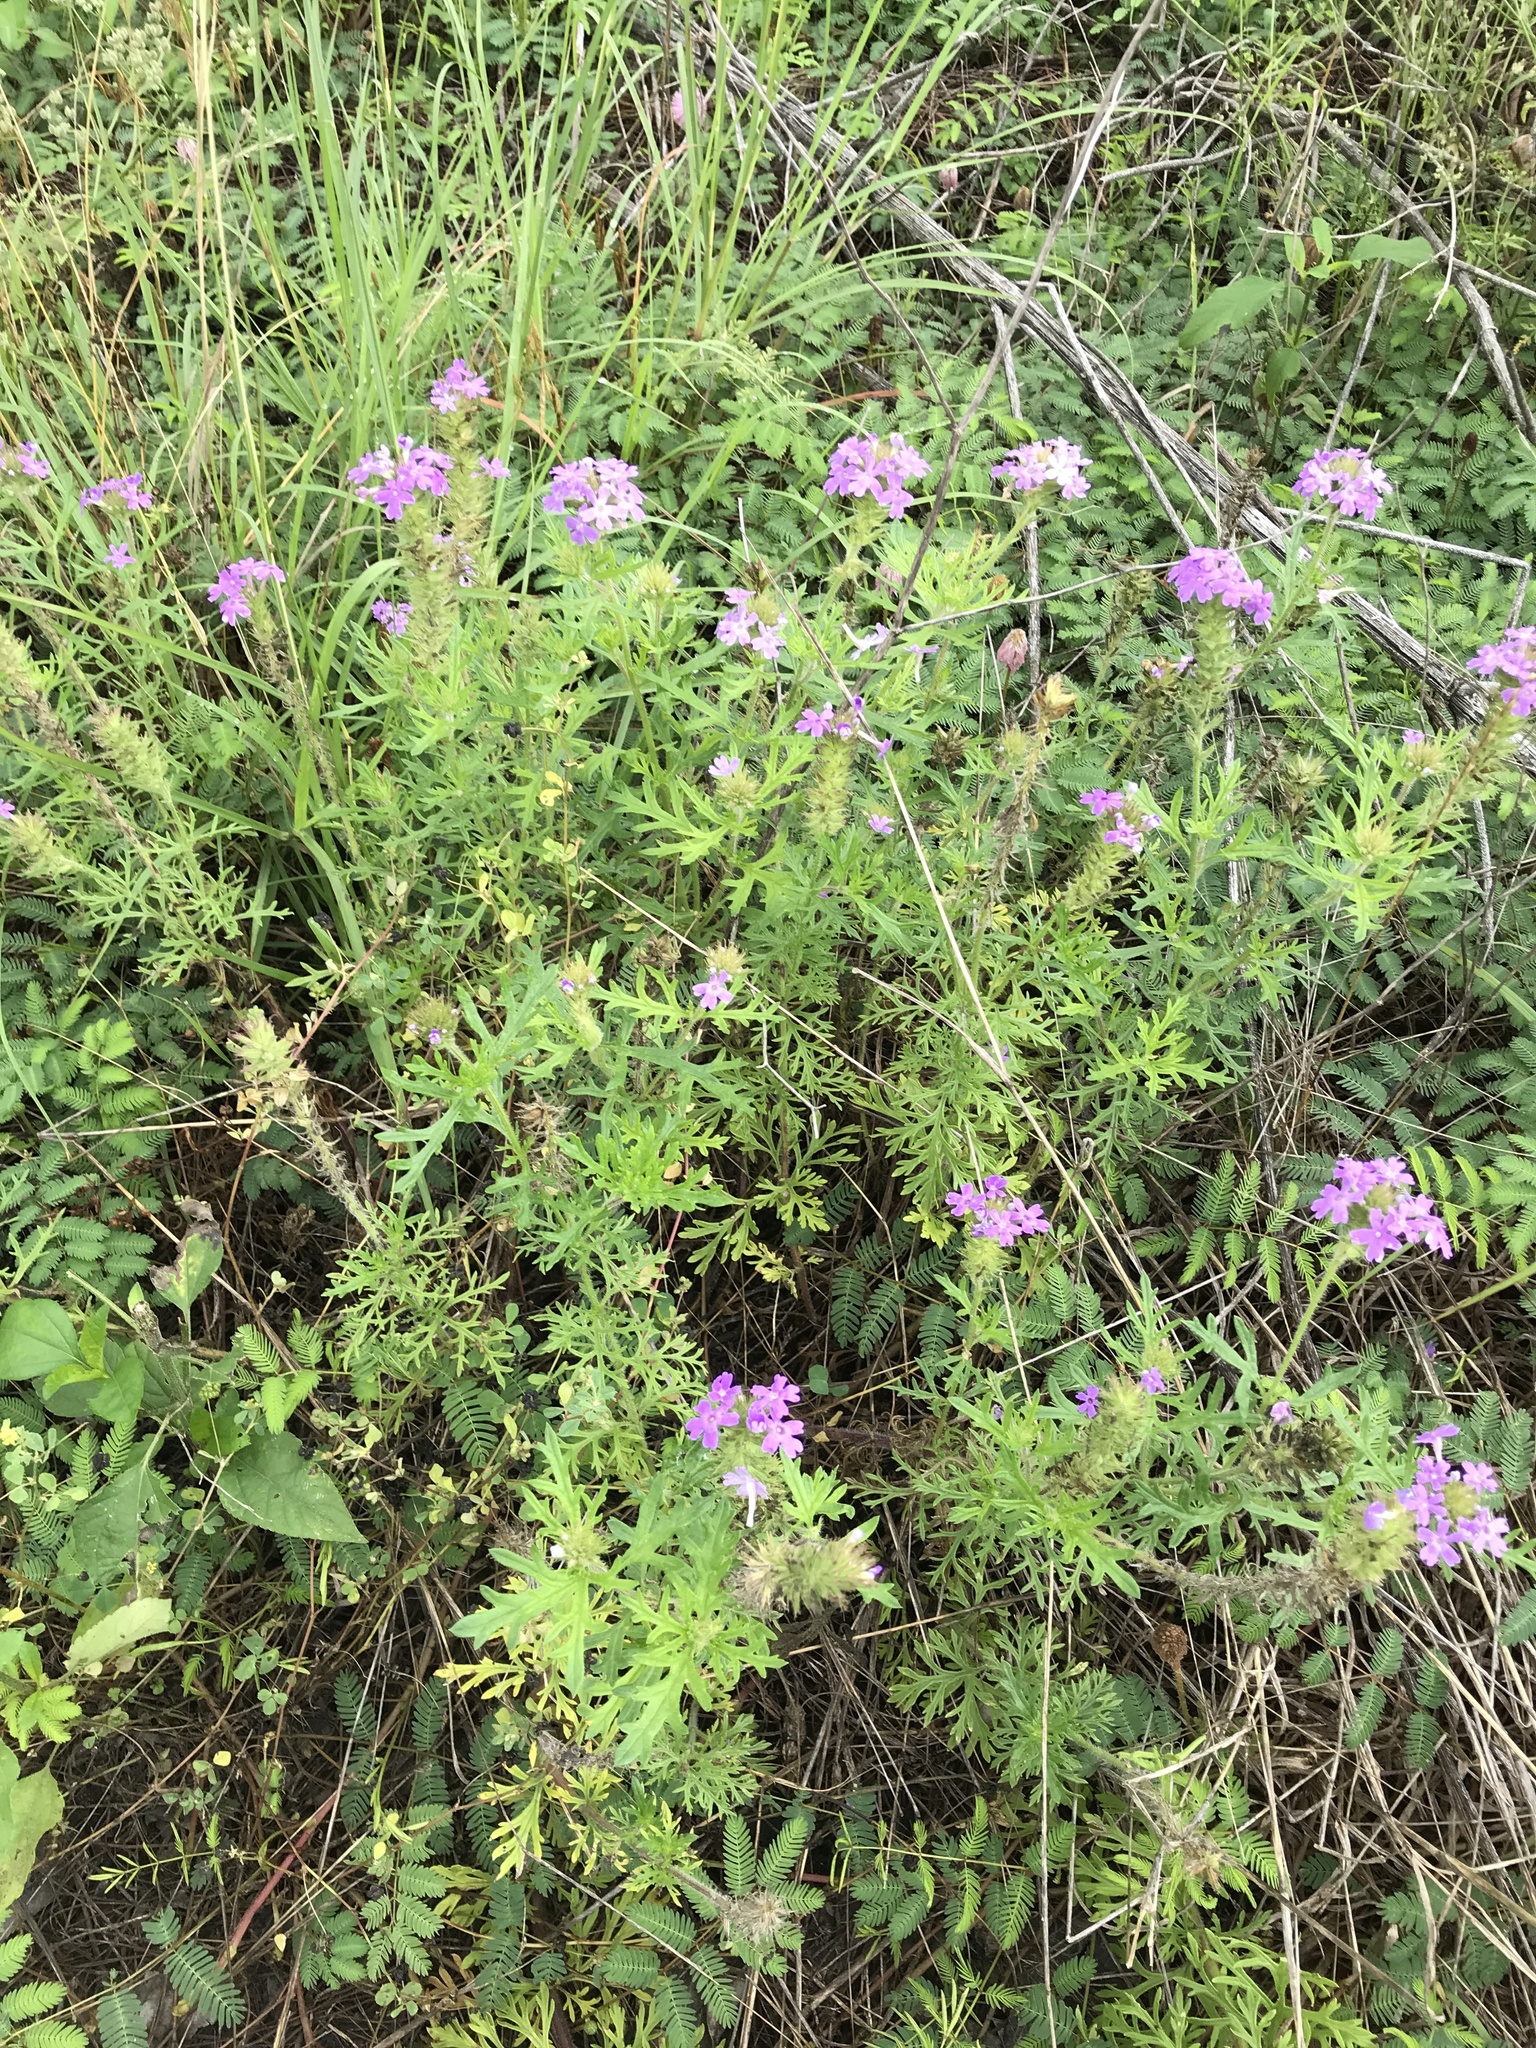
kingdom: Plantae
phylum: Tracheophyta
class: Magnoliopsida
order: Lamiales
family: Verbenaceae
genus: Verbena
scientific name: Verbena bipinnatifida
